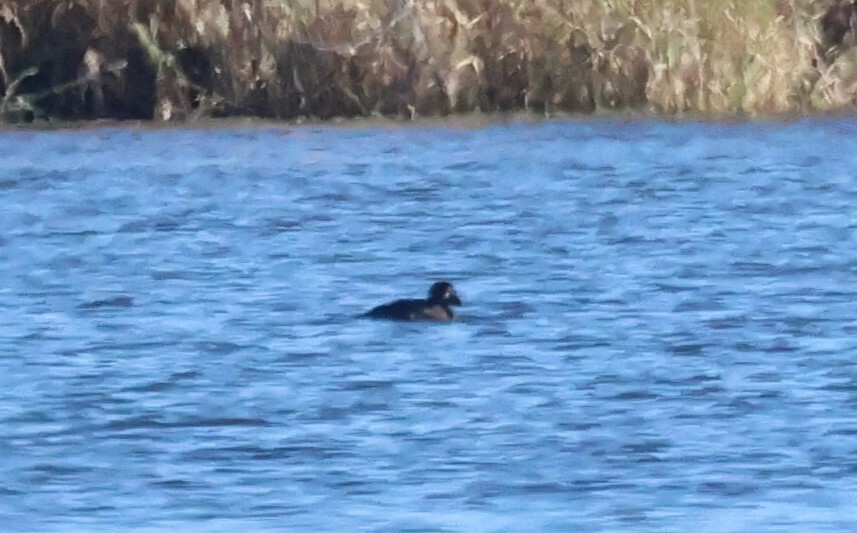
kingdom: Animalia
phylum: Chordata
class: Aves
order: Anseriformes
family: Anatidae
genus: Melanitta
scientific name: Melanitta perspicillata
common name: Surf scoter
